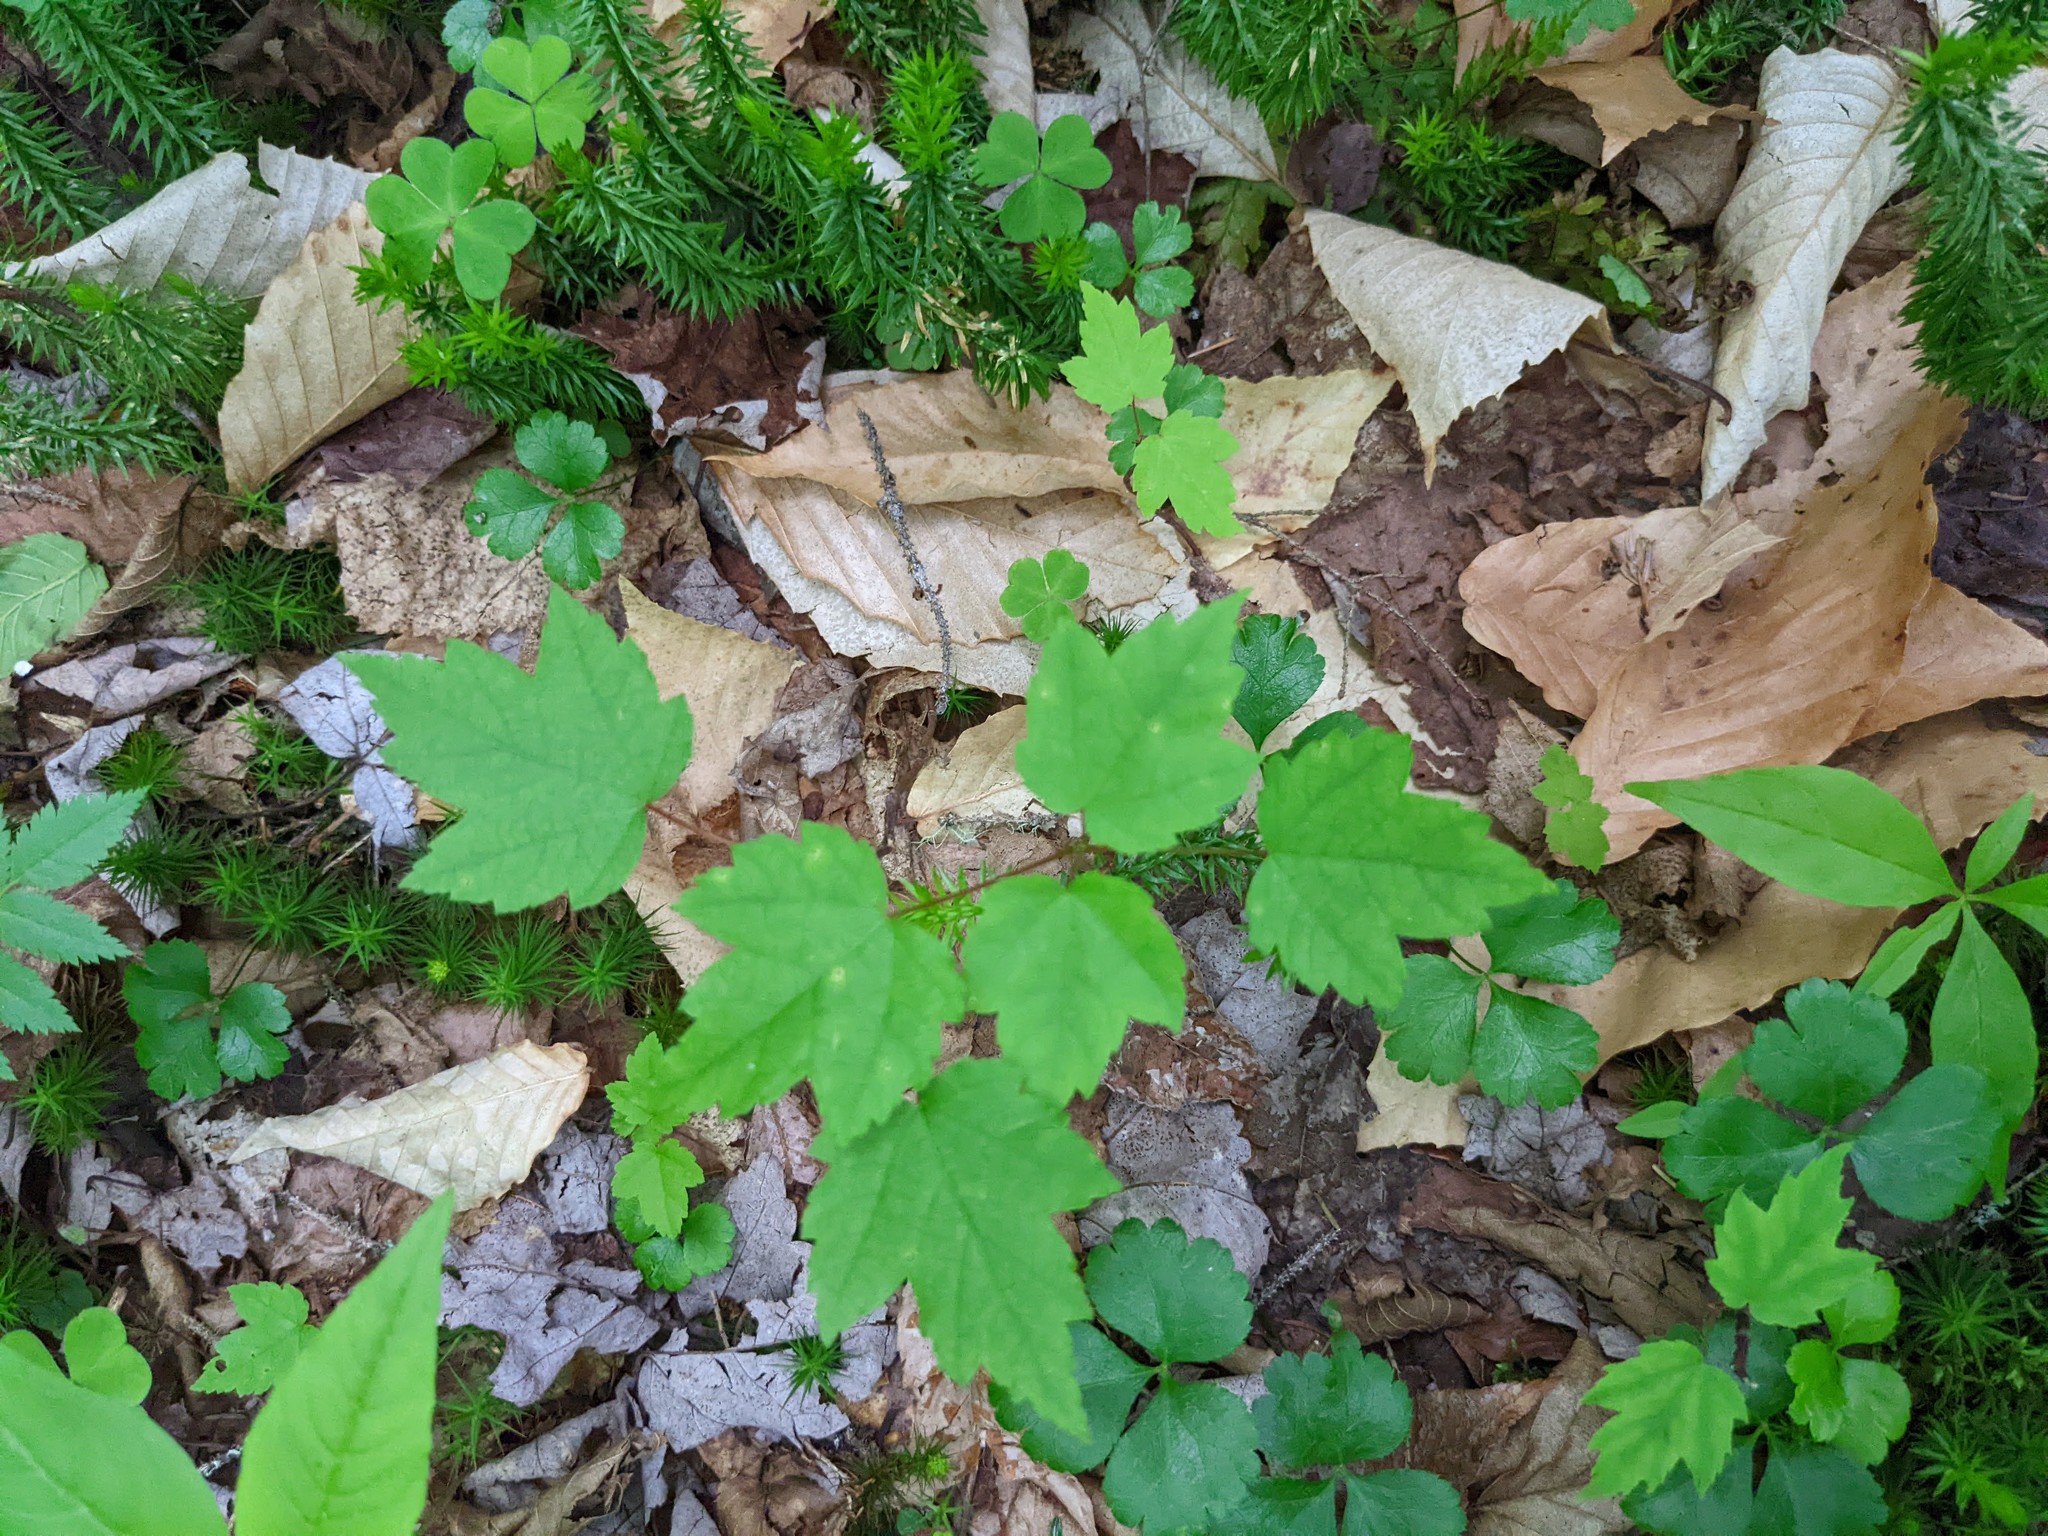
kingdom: Plantae
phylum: Tracheophyta
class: Magnoliopsida
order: Sapindales
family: Sapindaceae
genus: Acer
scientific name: Acer rubrum
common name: Red maple
